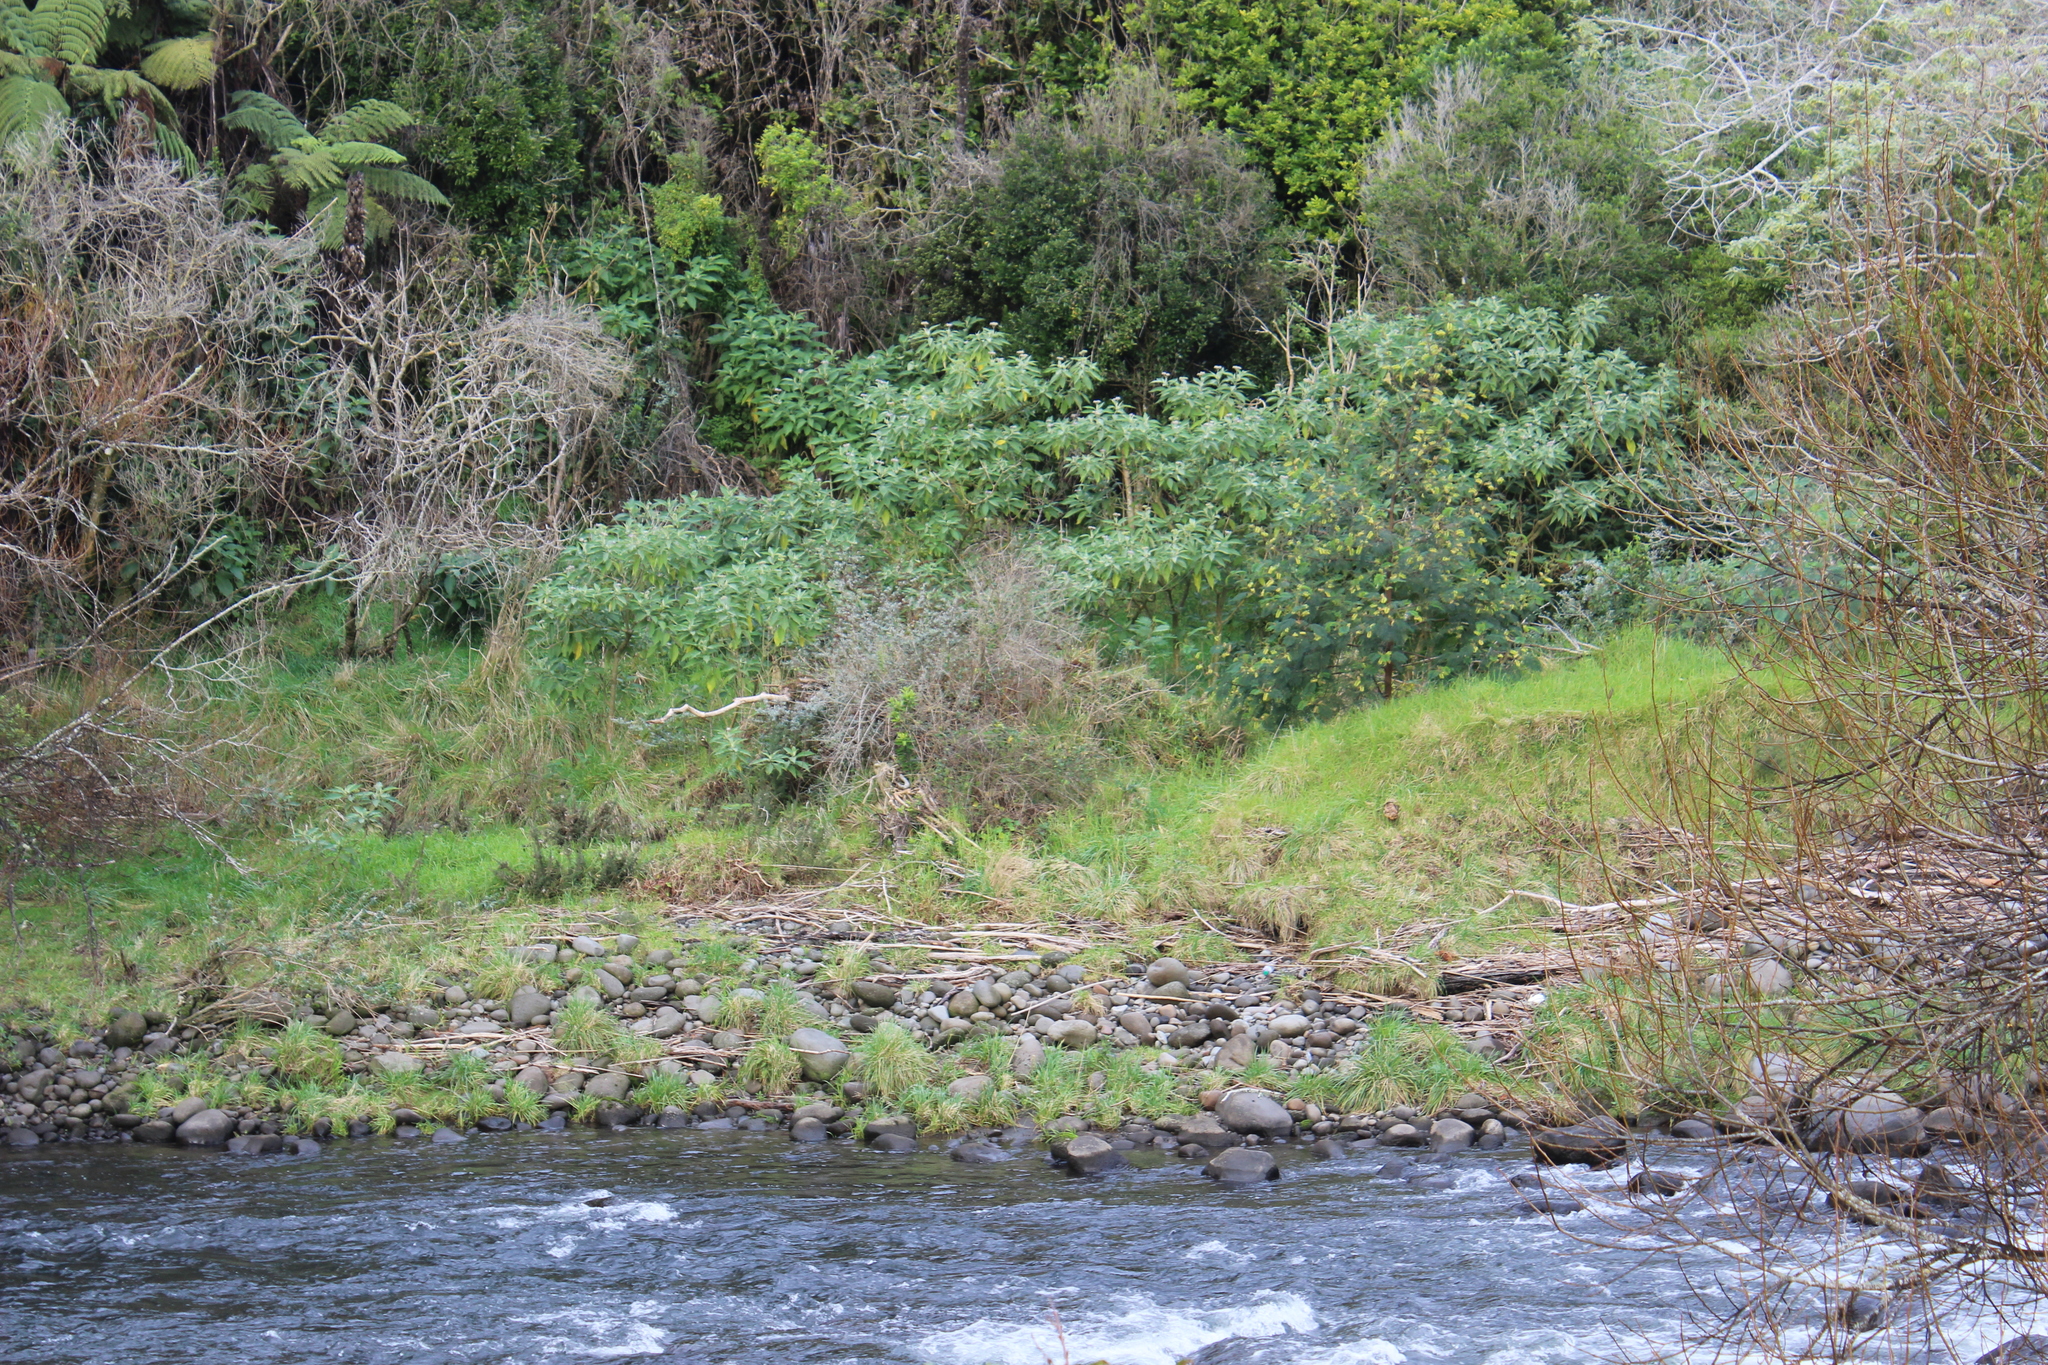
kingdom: Plantae
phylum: Tracheophyta
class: Magnoliopsida
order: Solanales
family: Solanaceae
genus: Solanum
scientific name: Solanum mauritianum
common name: Earleaf nightshade
